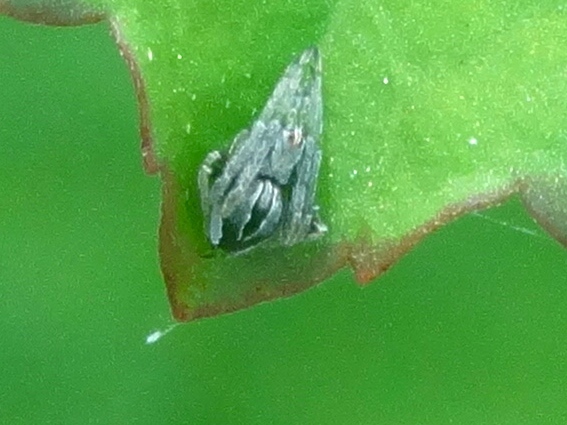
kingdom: Animalia
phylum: Arthropoda
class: Arachnida
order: Araneae
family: Araneidae
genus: Acacesia
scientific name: Acacesia
